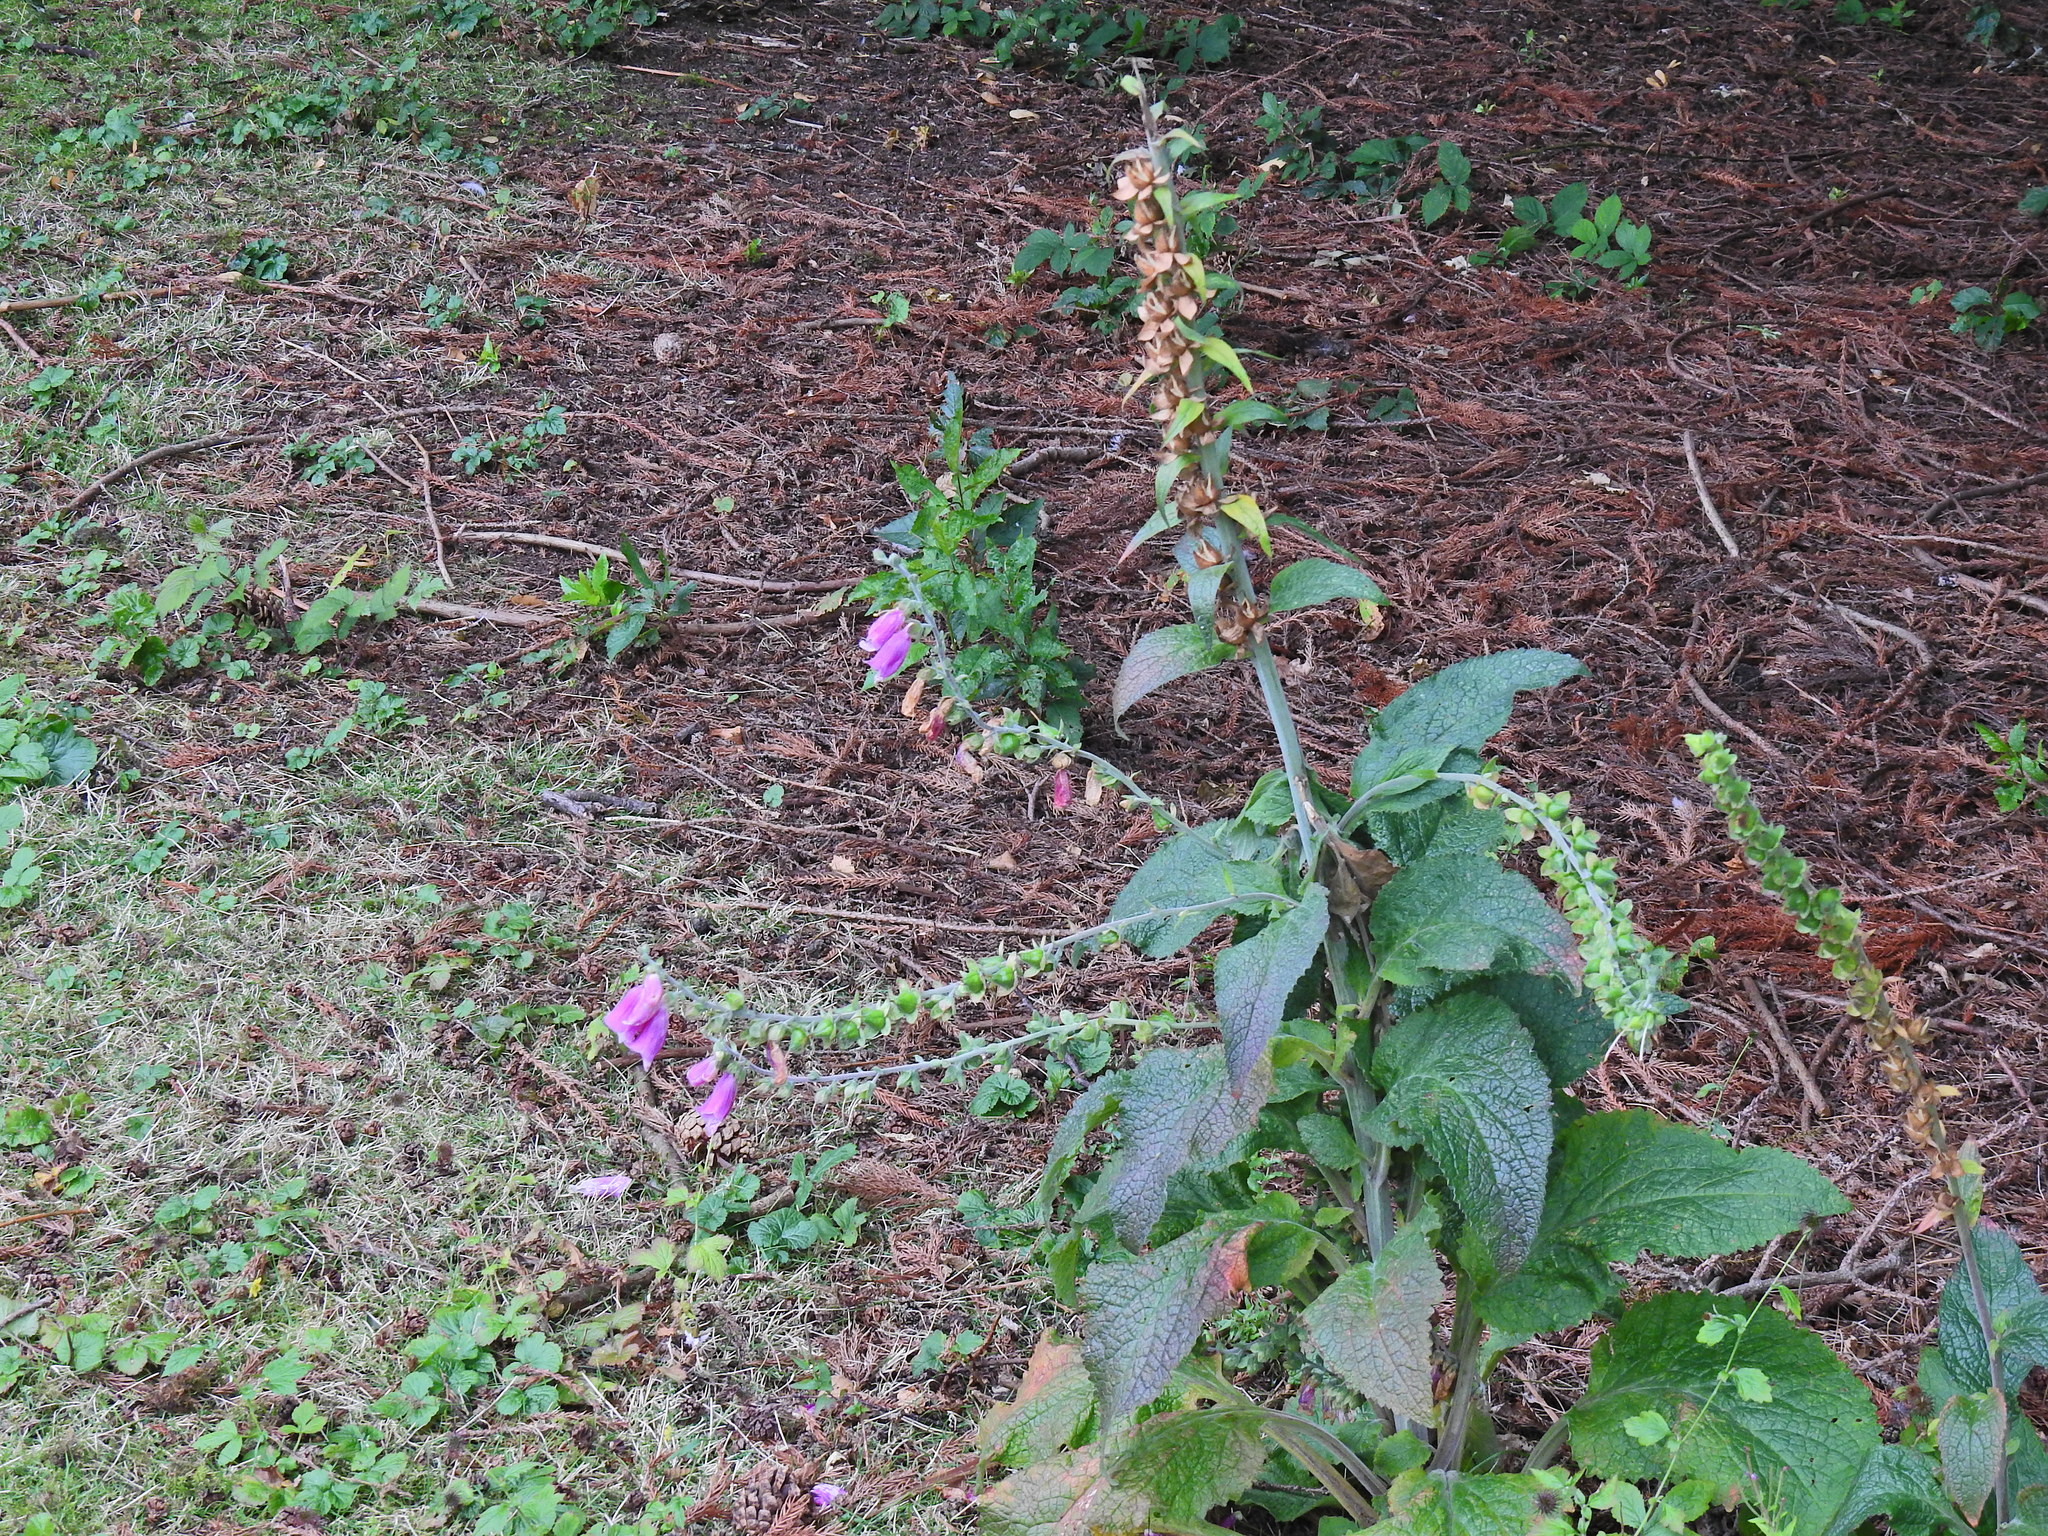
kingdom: Plantae
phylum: Tracheophyta
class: Magnoliopsida
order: Lamiales
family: Plantaginaceae
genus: Digitalis
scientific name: Digitalis purpurea
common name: Foxglove
